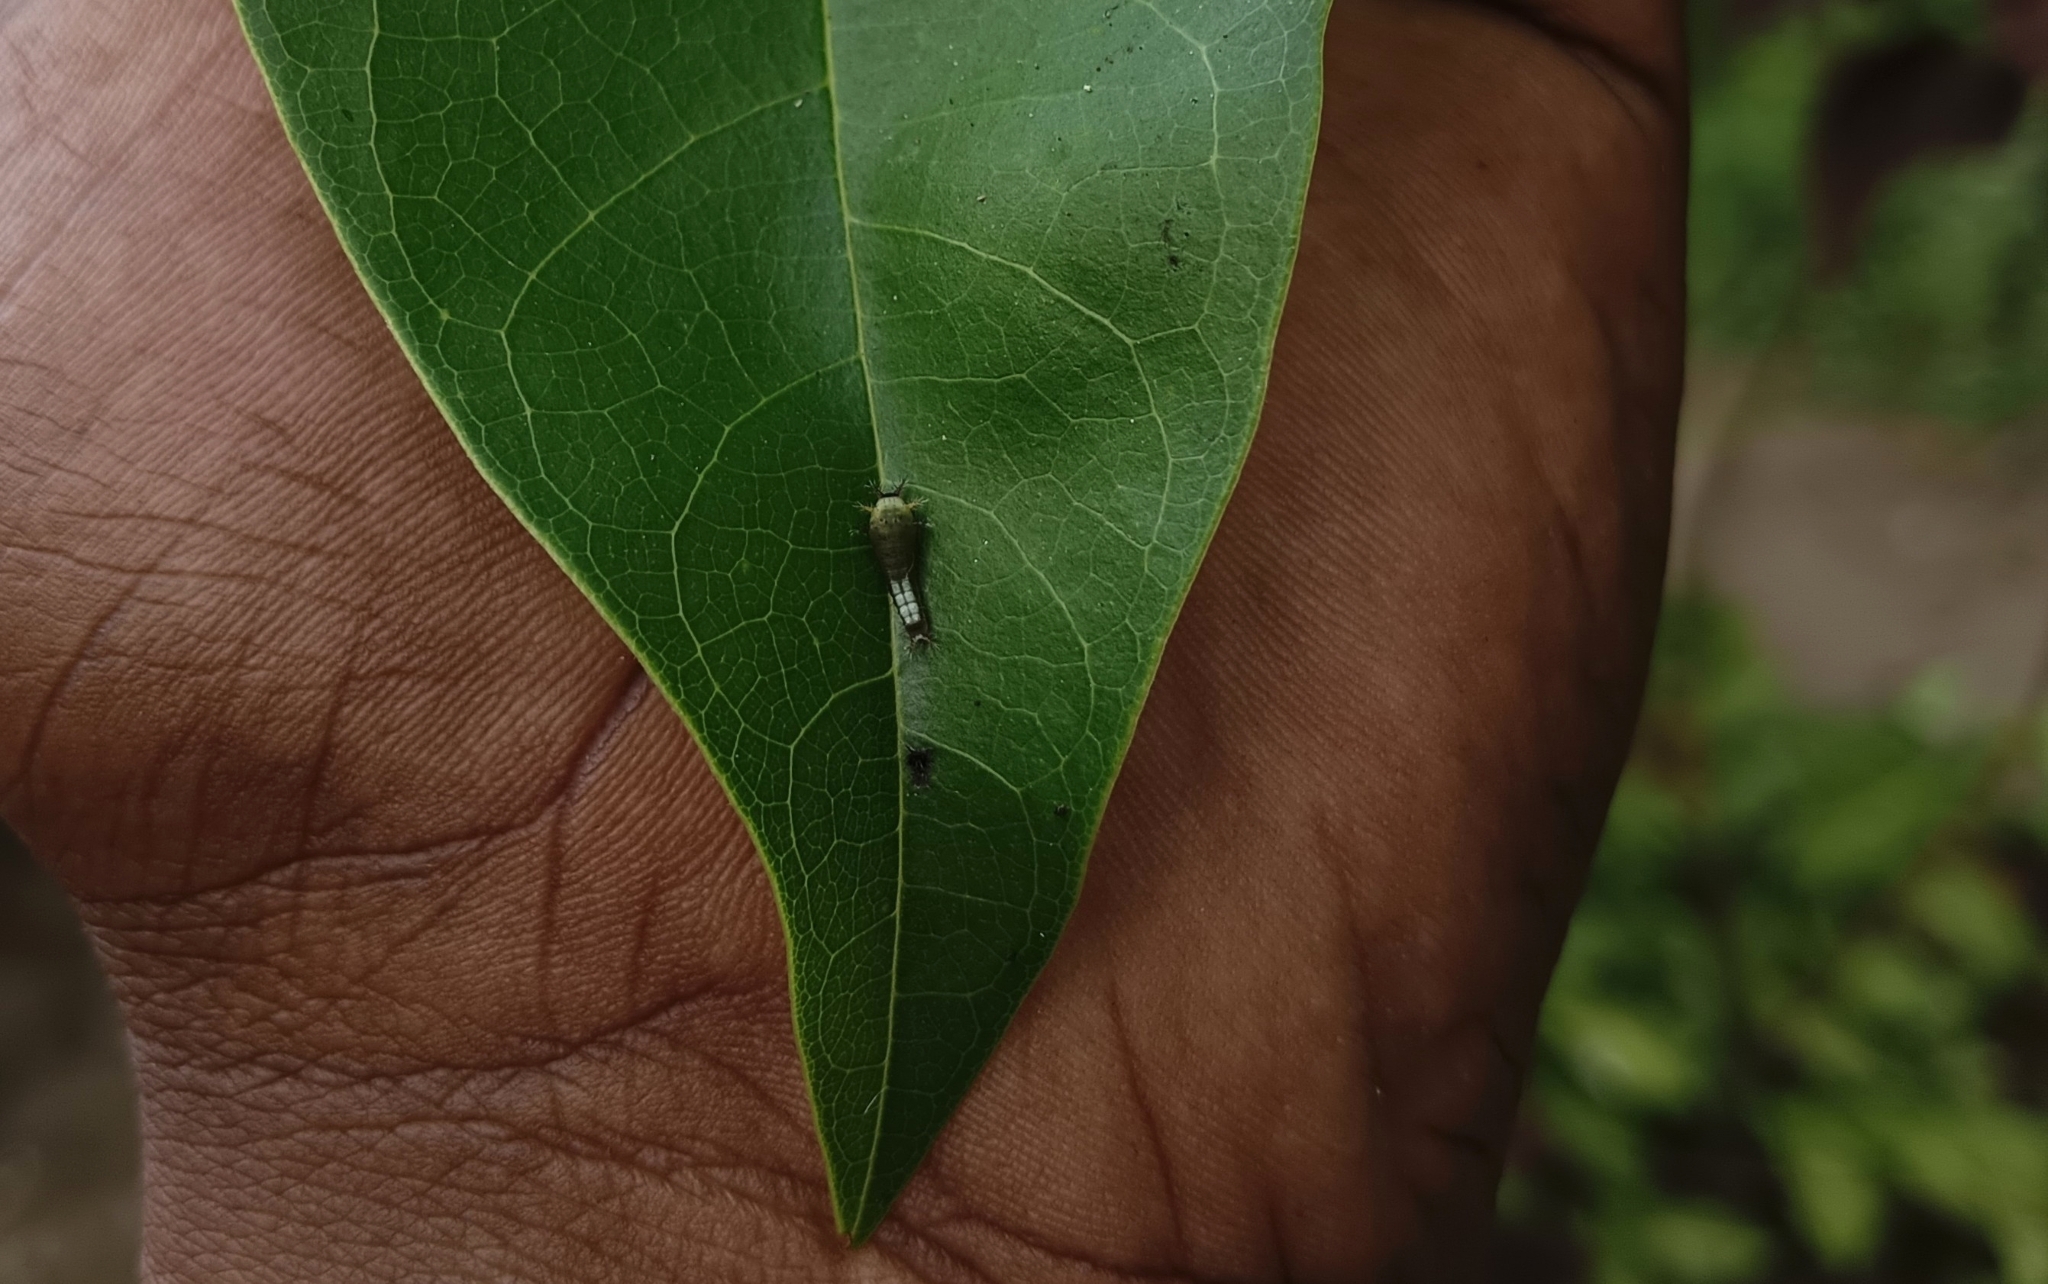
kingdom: Animalia
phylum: Arthropoda
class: Insecta
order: Lepidoptera
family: Papilionidae
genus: Graphium
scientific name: Graphium agamemnon
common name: Tailed jay
